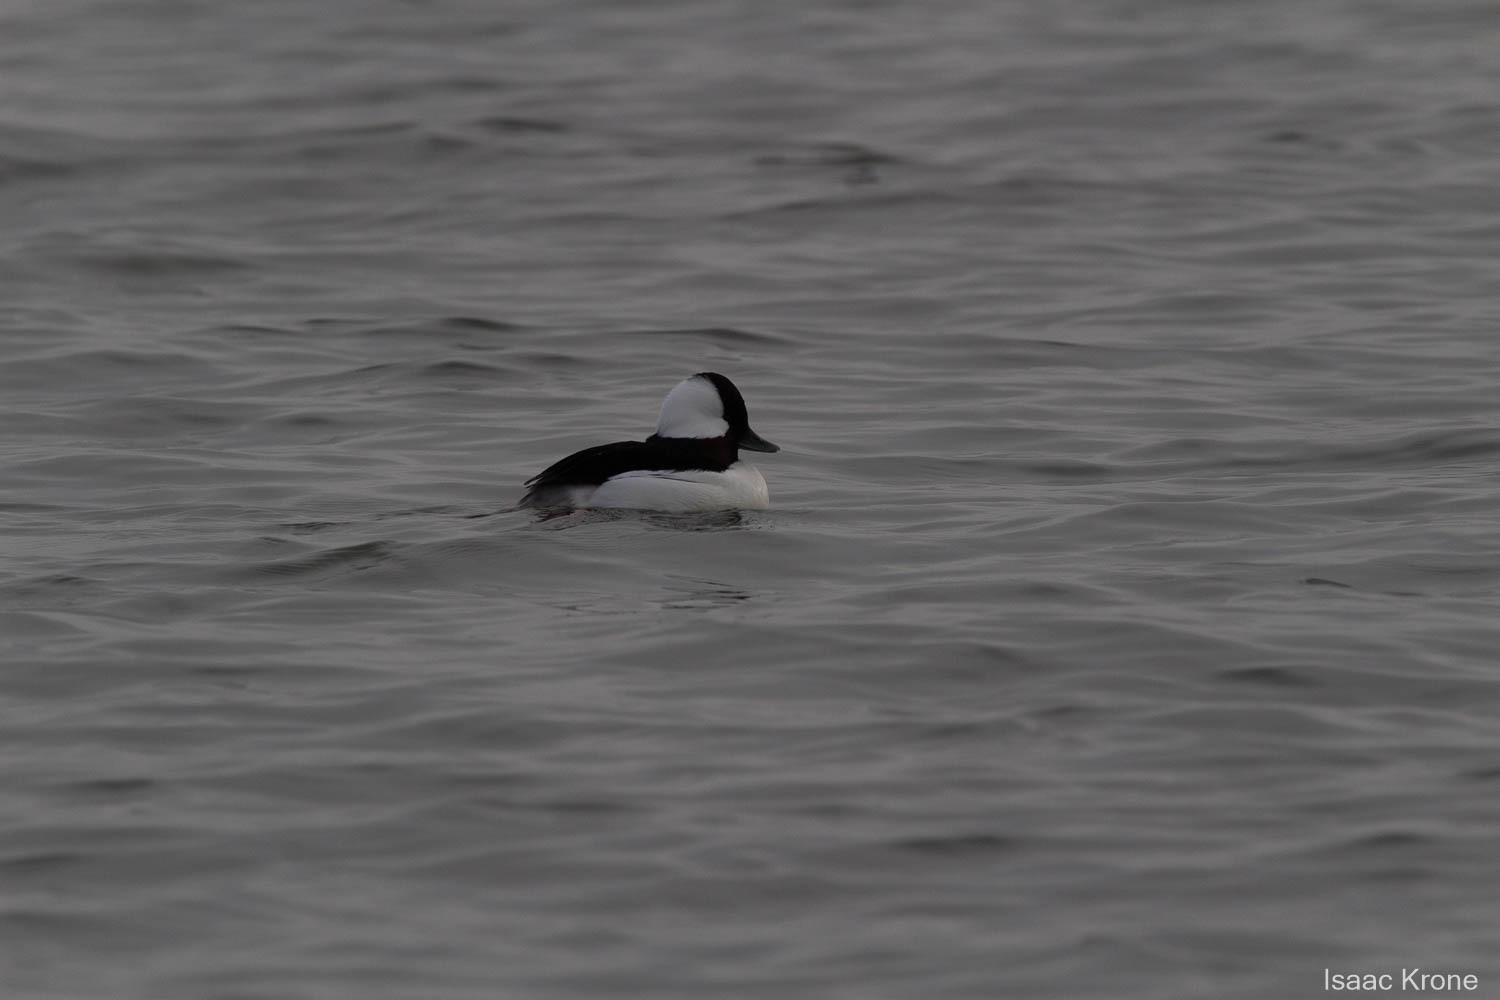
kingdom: Animalia
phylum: Chordata
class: Aves
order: Anseriformes
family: Anatidae
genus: Bucephala
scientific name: Bucephala albeola
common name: Bufflehead
